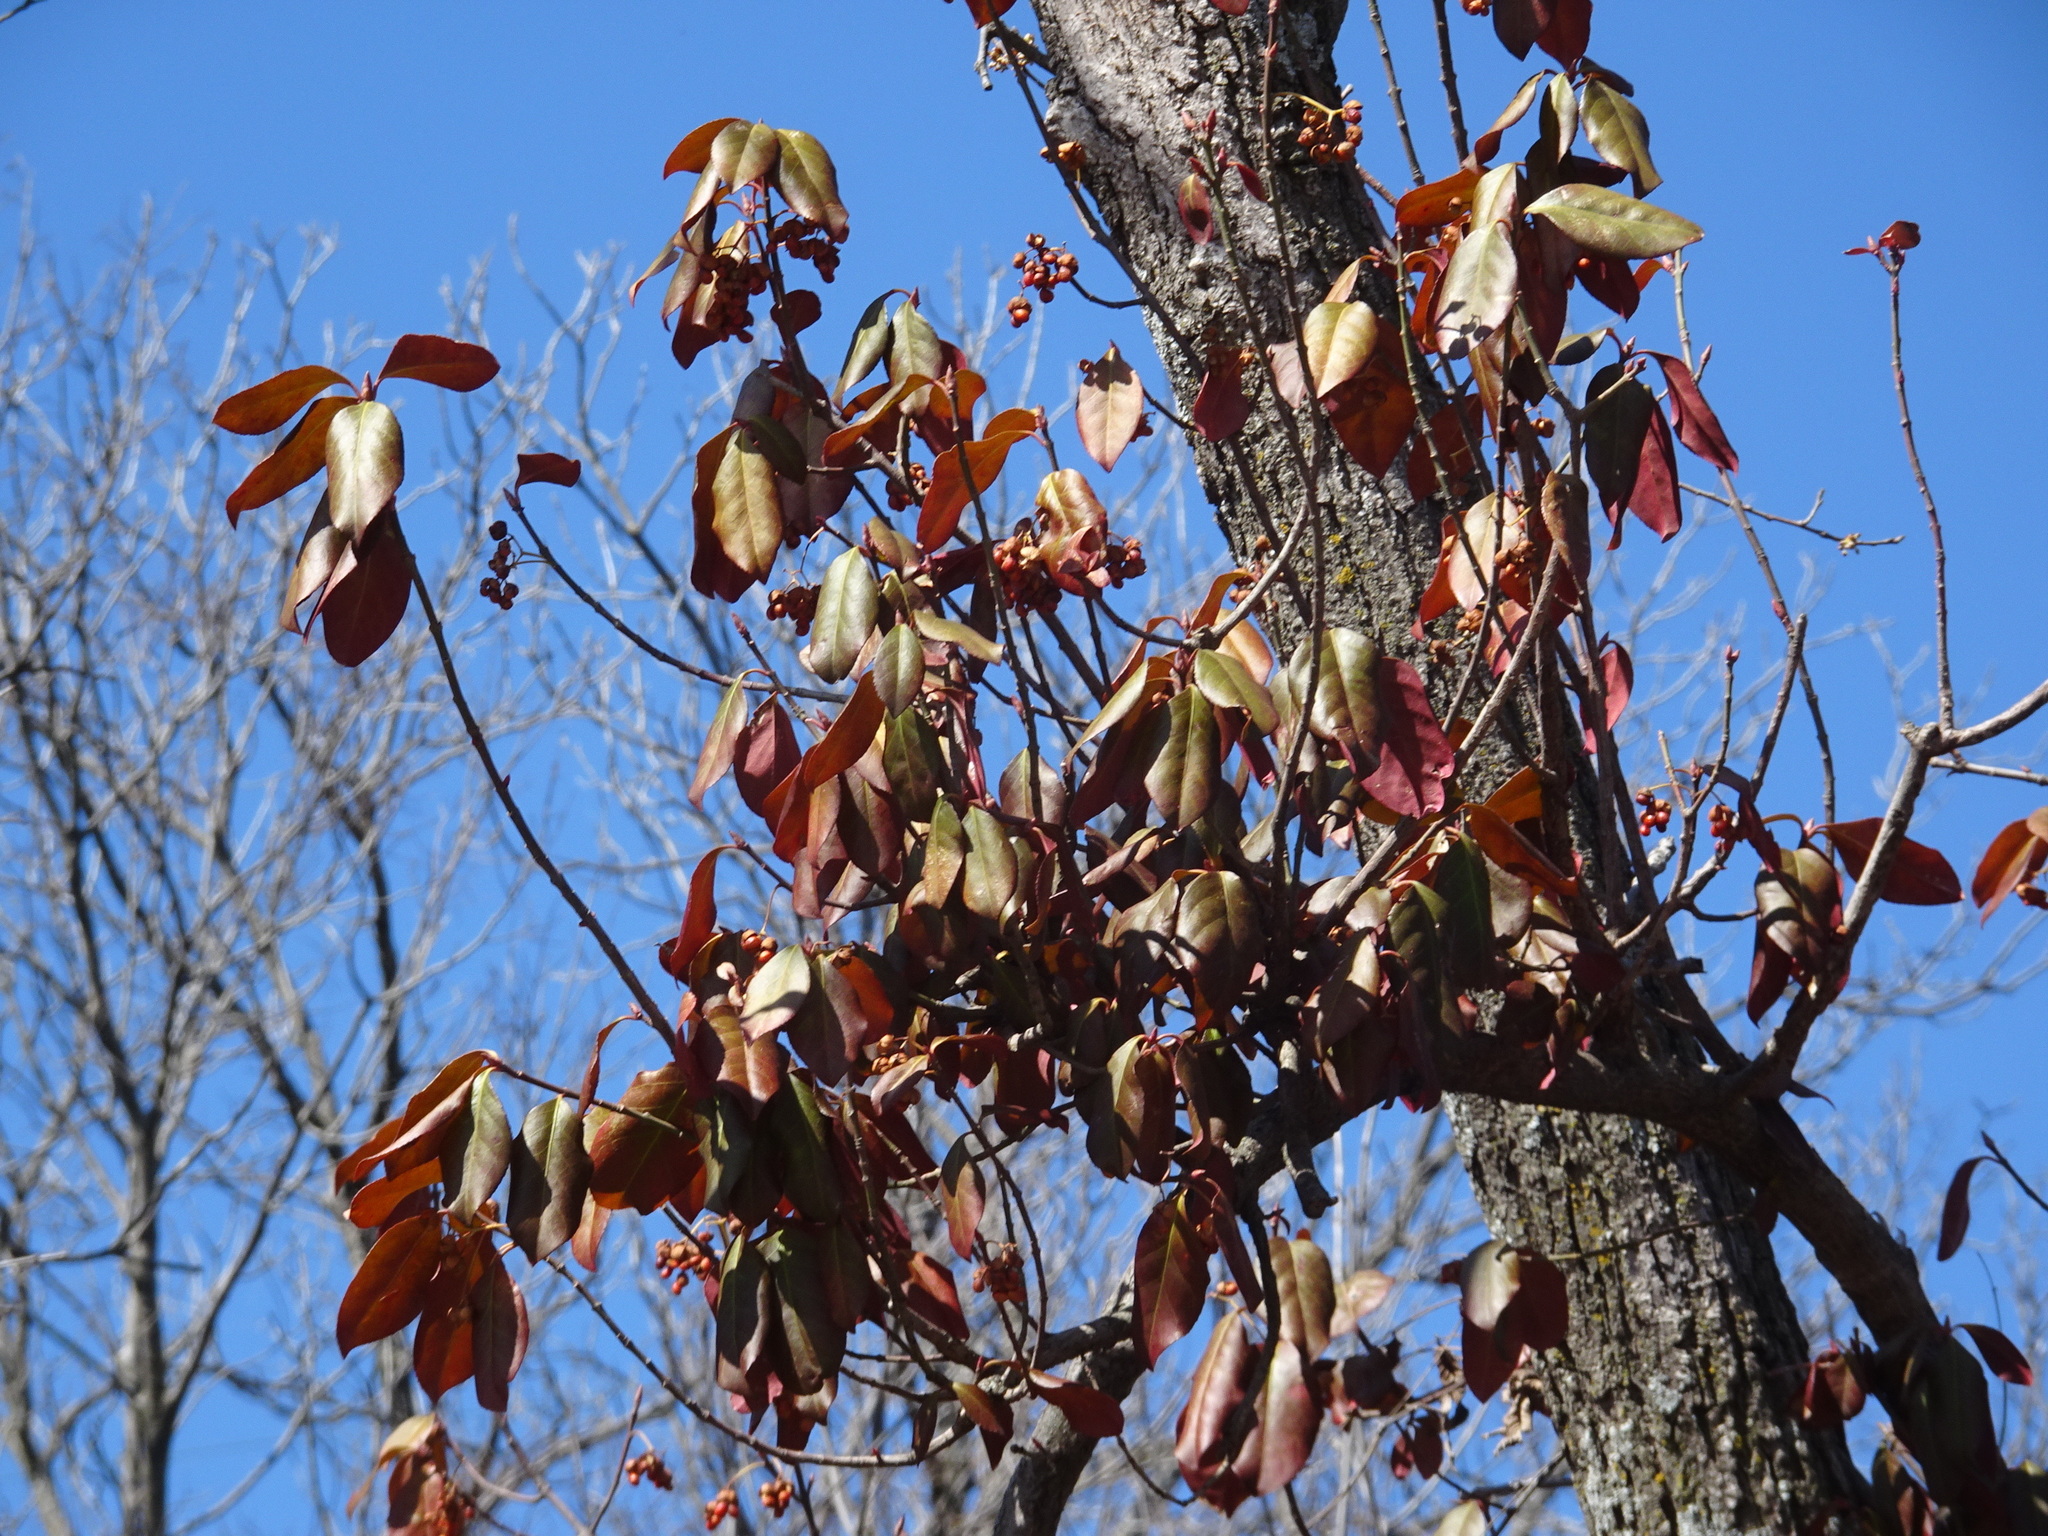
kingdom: Plantae
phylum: Tracheophyta
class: Magnoliopsida
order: Celastrales
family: Celastraceae
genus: Euonymus
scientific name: Euonymus fortunei
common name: Climbing euonymus
